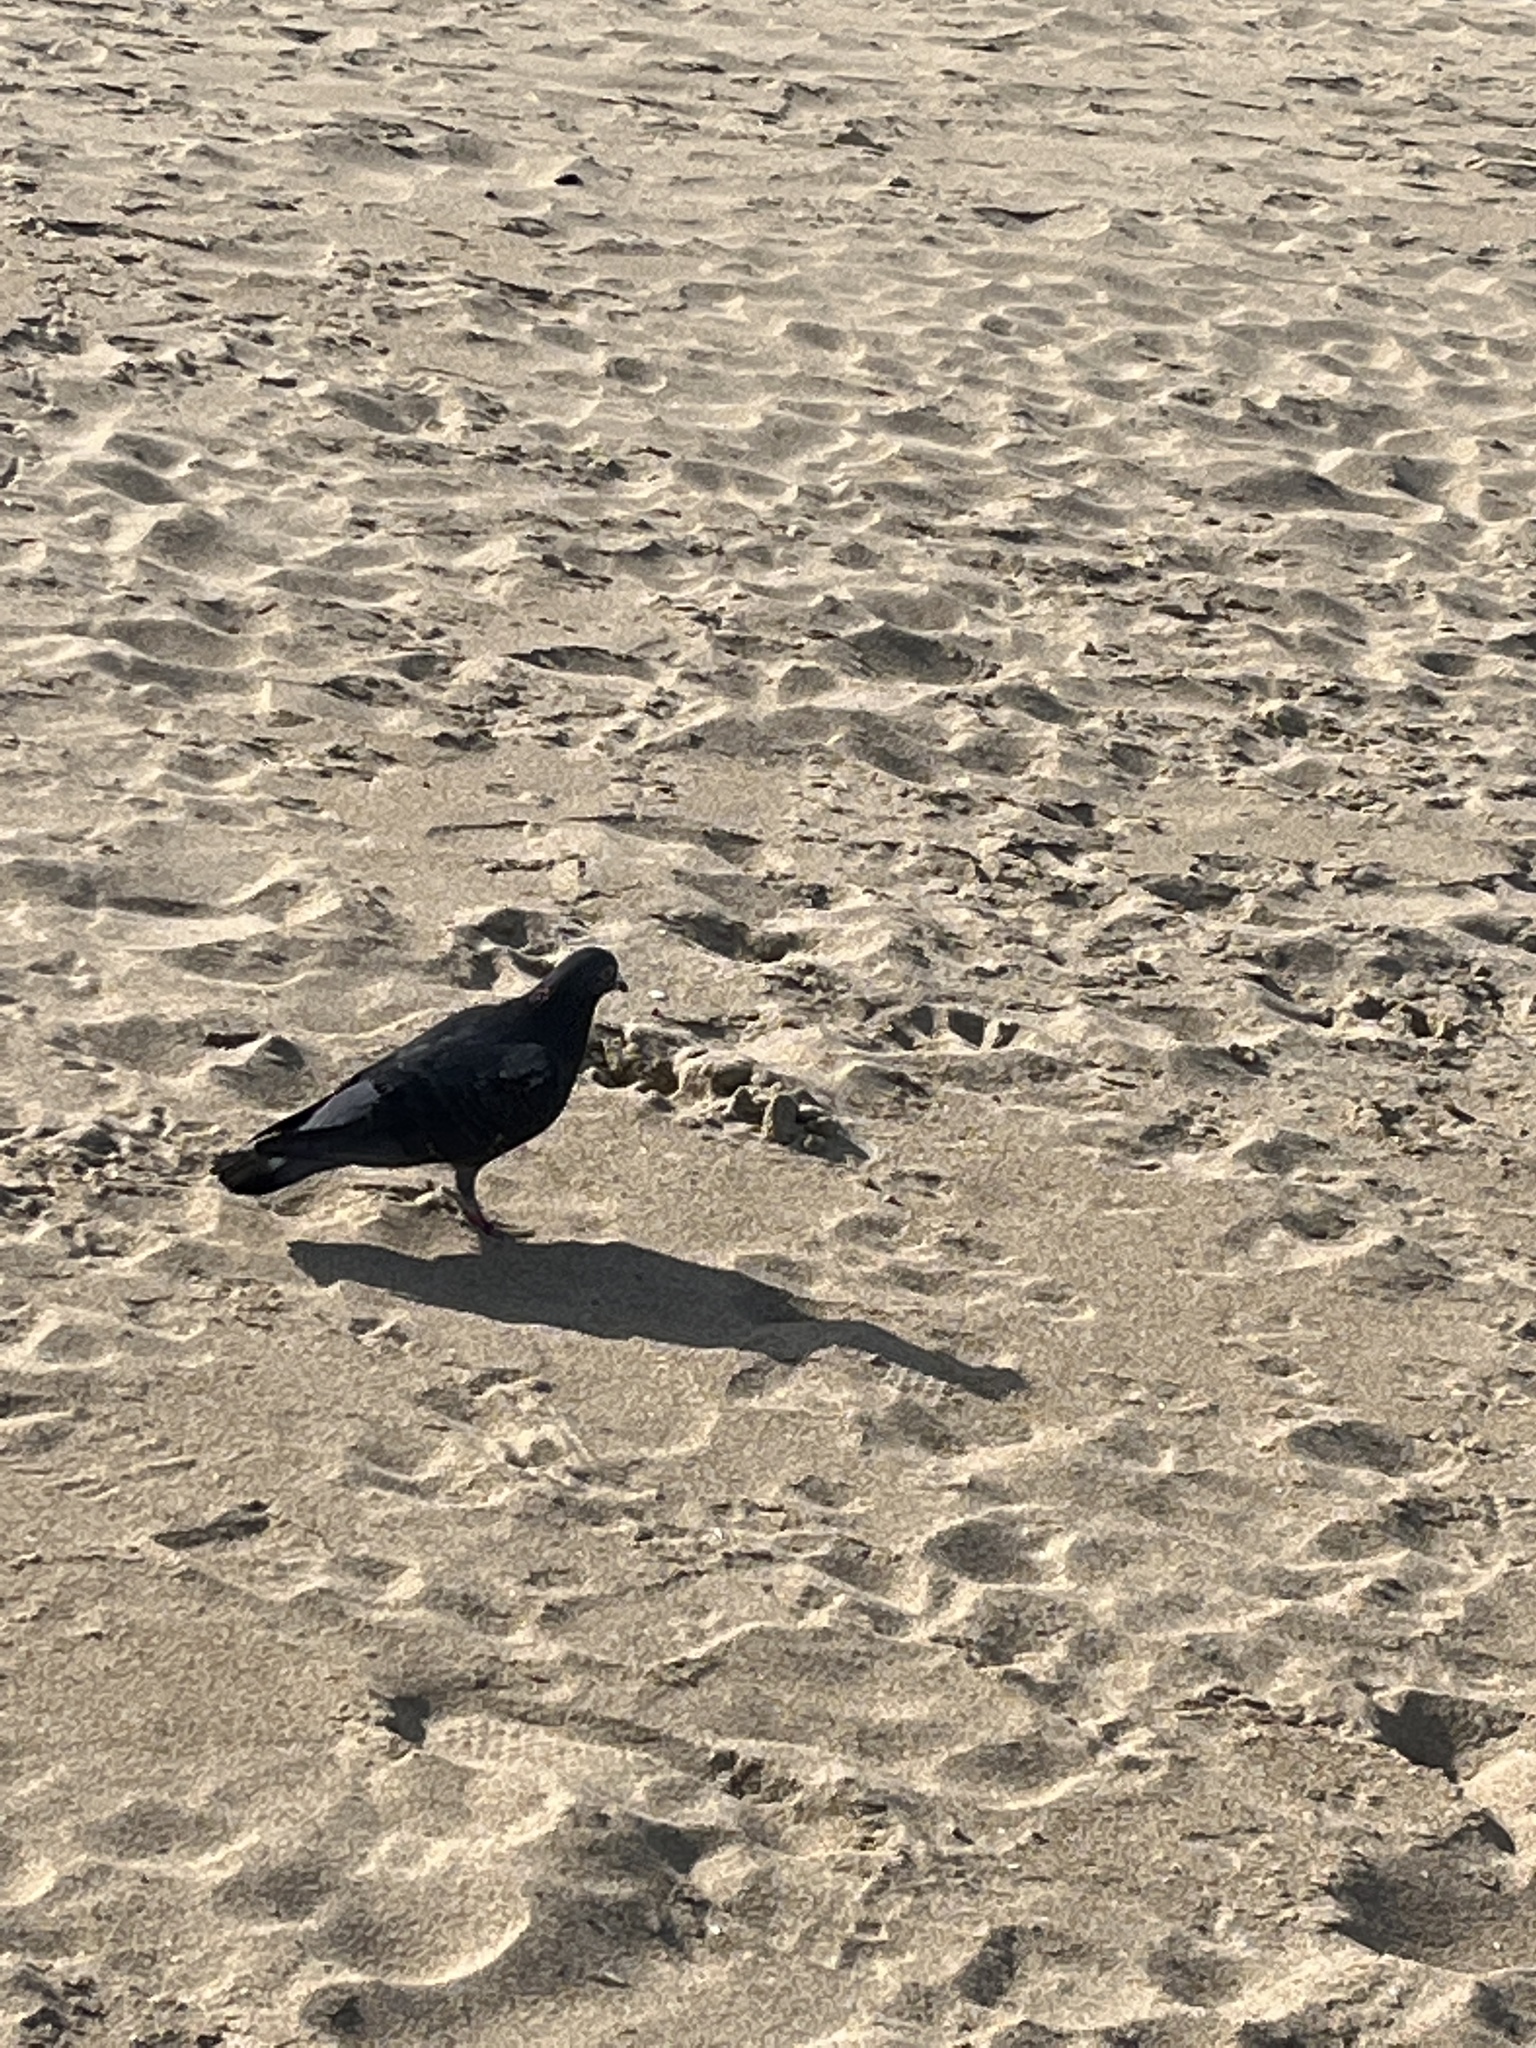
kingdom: Animalia
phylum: Chordata
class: Aves
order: Columbiformes
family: Columbidae
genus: Columba
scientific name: Columba livia
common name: Rock pigeon
